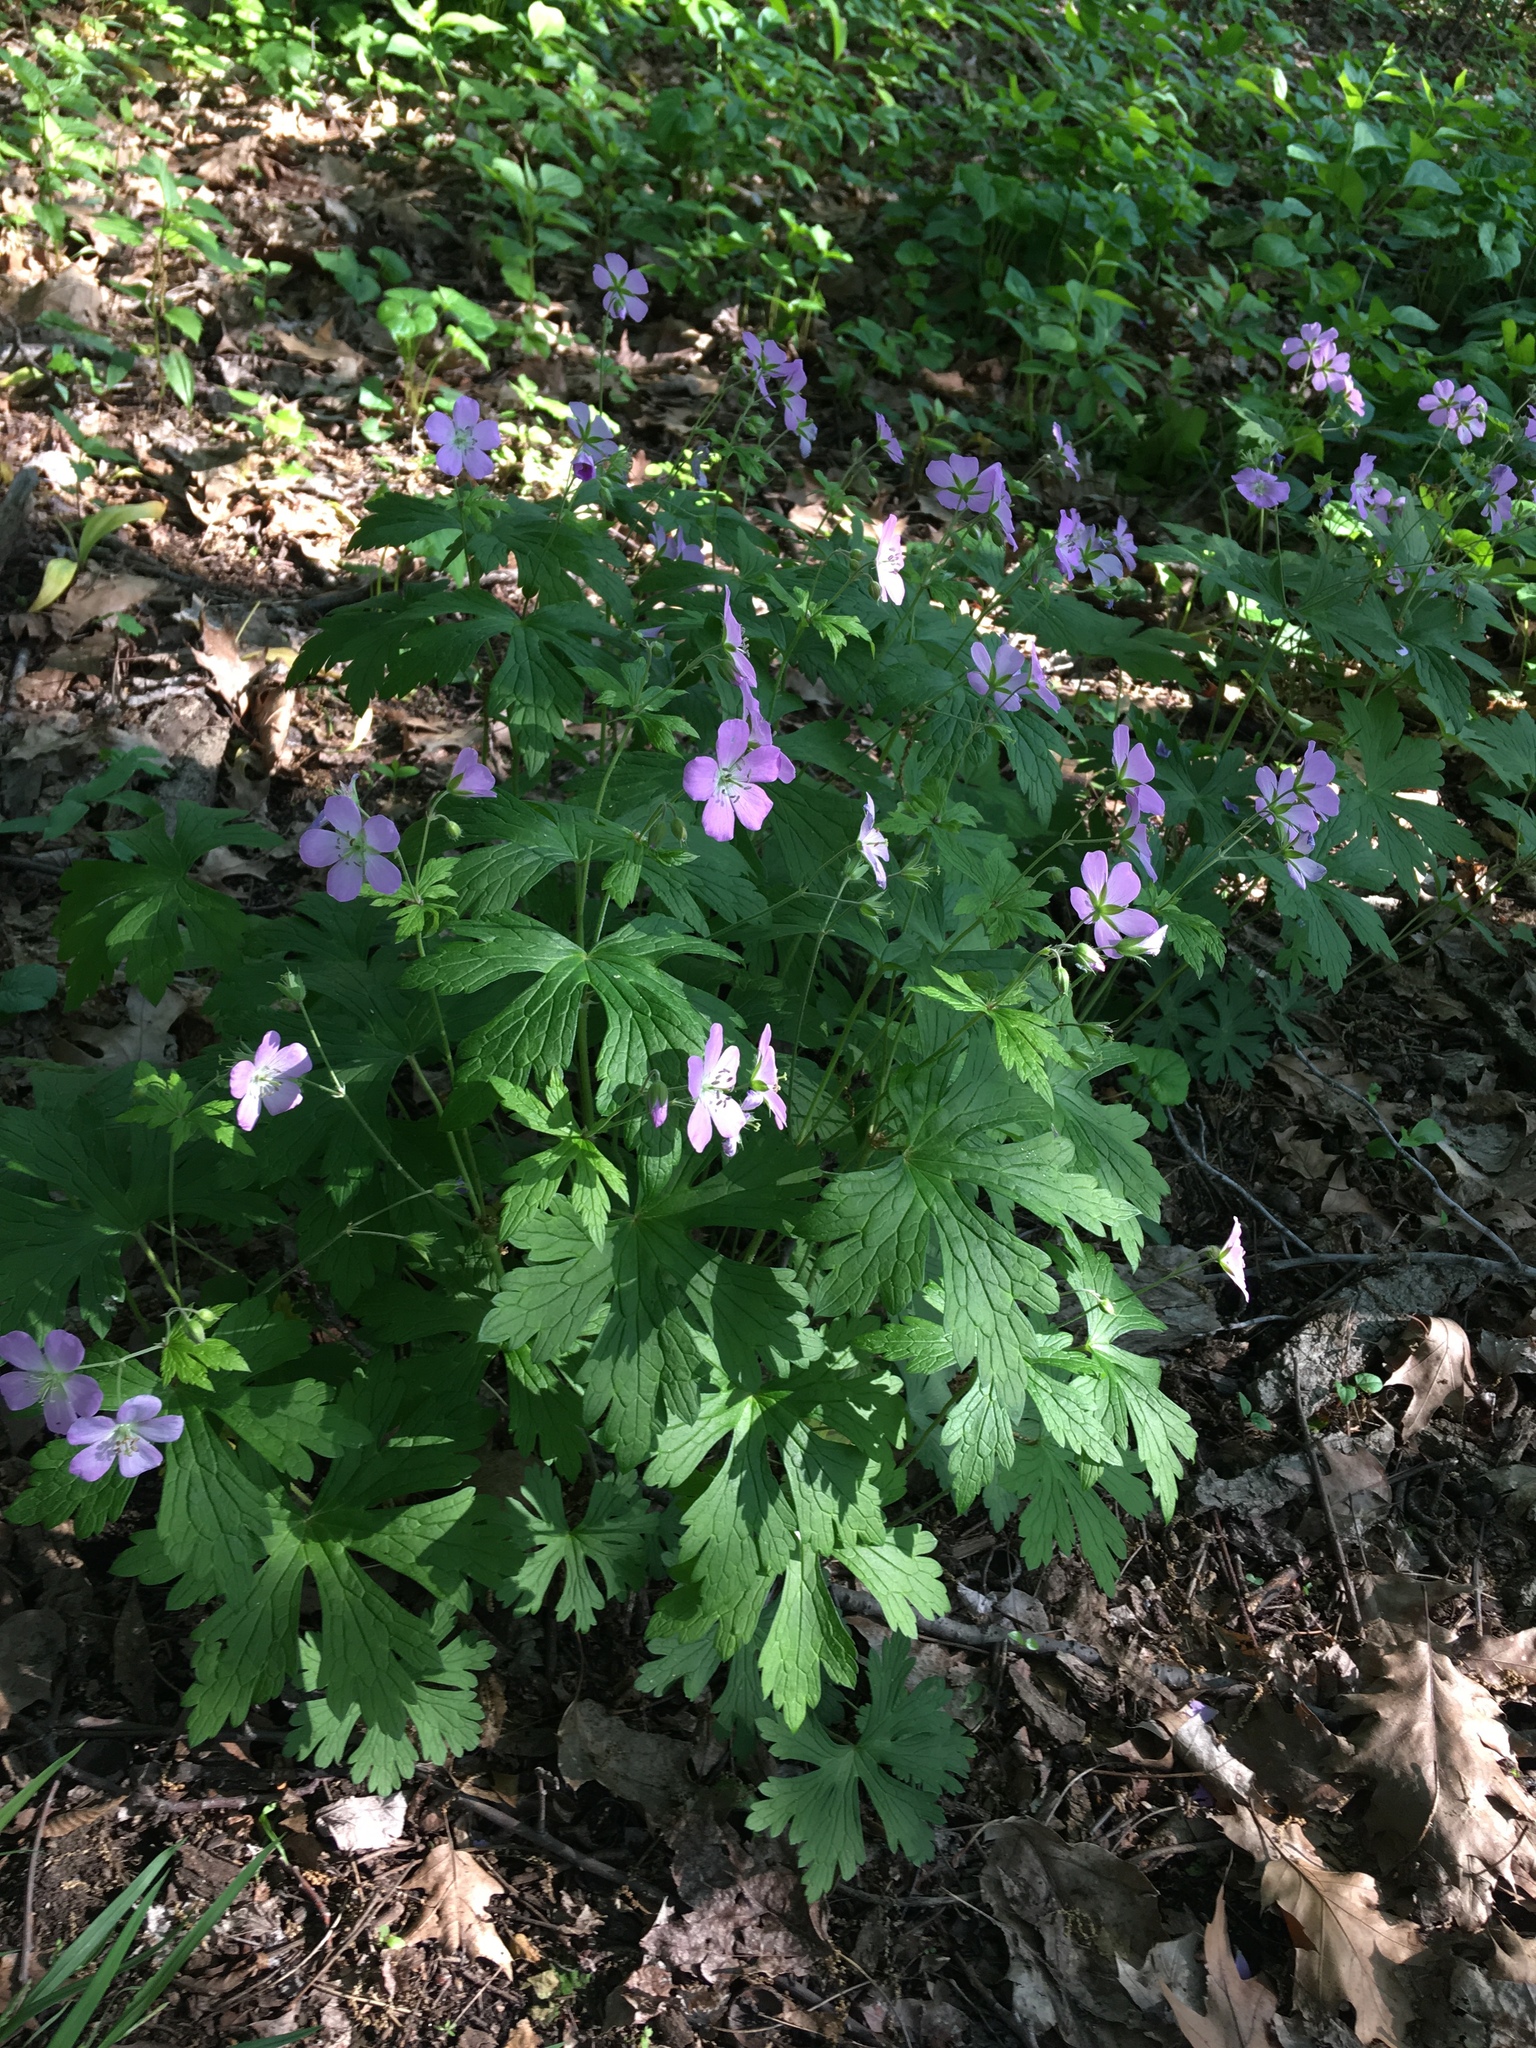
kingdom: Plantae
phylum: Tracheophyta
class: Magnoliopsida
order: Geraniales
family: Geraniaceae
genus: Geranium
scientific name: Geranium maculatum
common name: Spotted geranium
